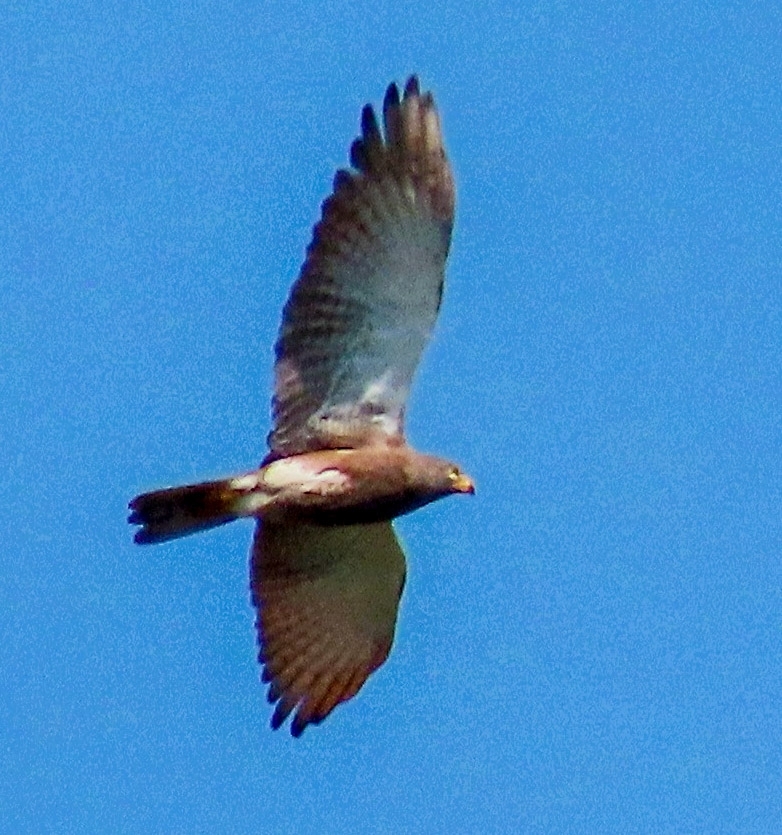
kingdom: Animalia
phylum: Chordata
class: Aves
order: Accipitriformes
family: Accipitridae
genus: Butastur
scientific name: Butastur liventer
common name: Rufous-winged buzzard
